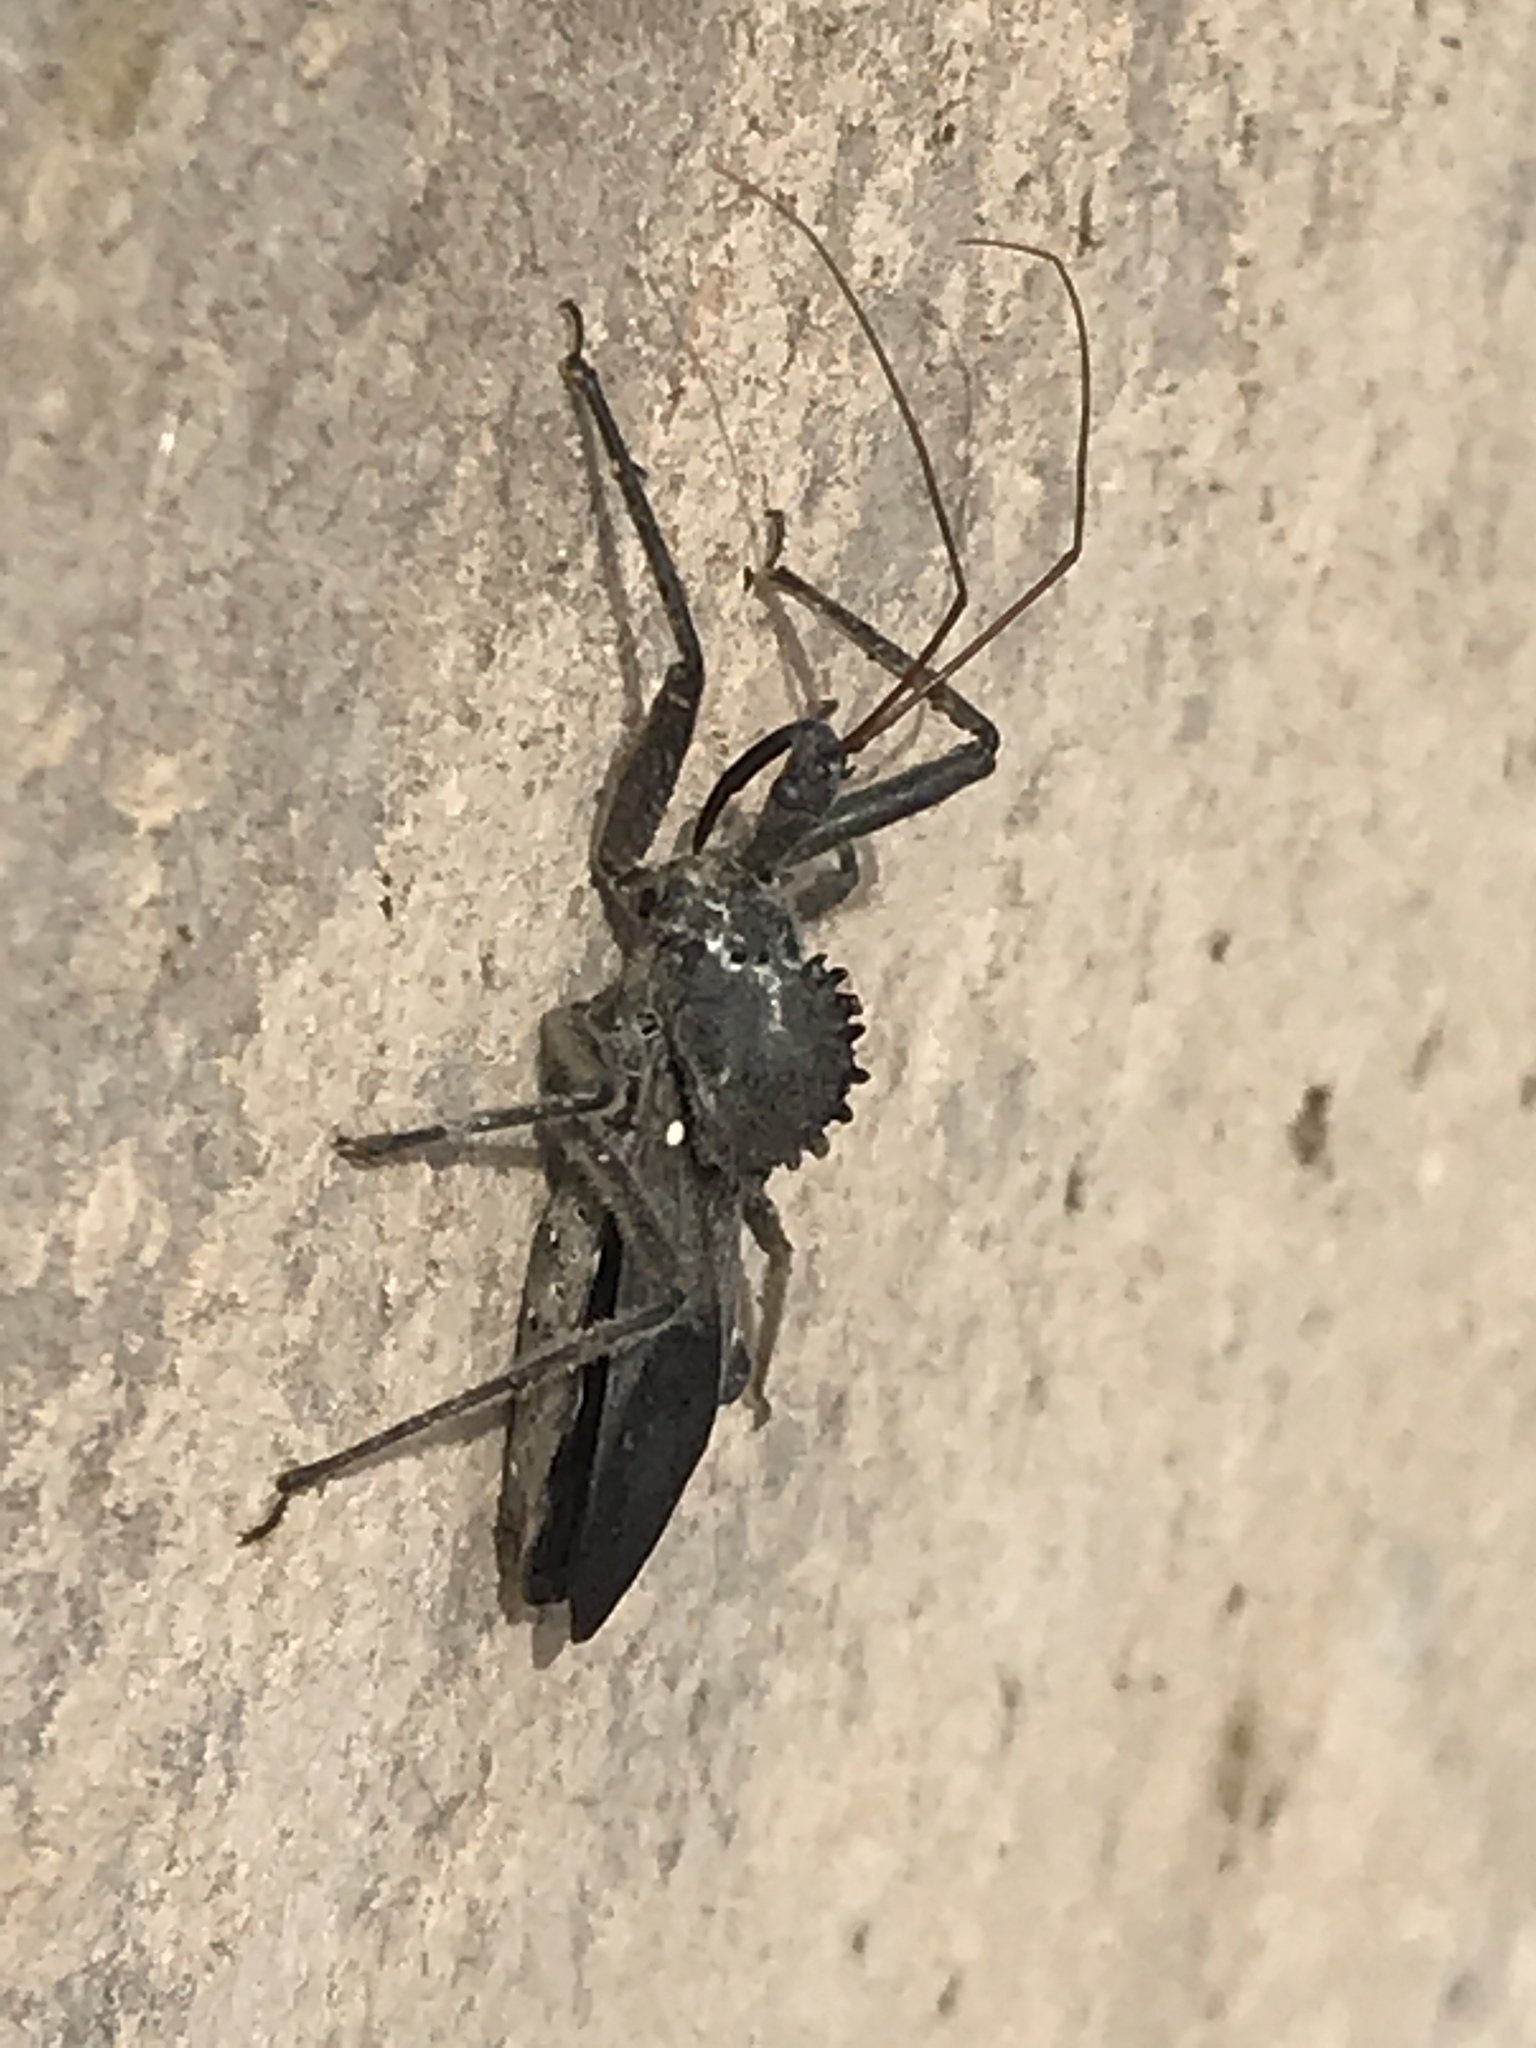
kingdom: Animalia
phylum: Arthropoda
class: Insecta
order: Hemiptera
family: Reduviidae
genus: Arilus
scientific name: Arilus cristatus
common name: North american wheel bug
